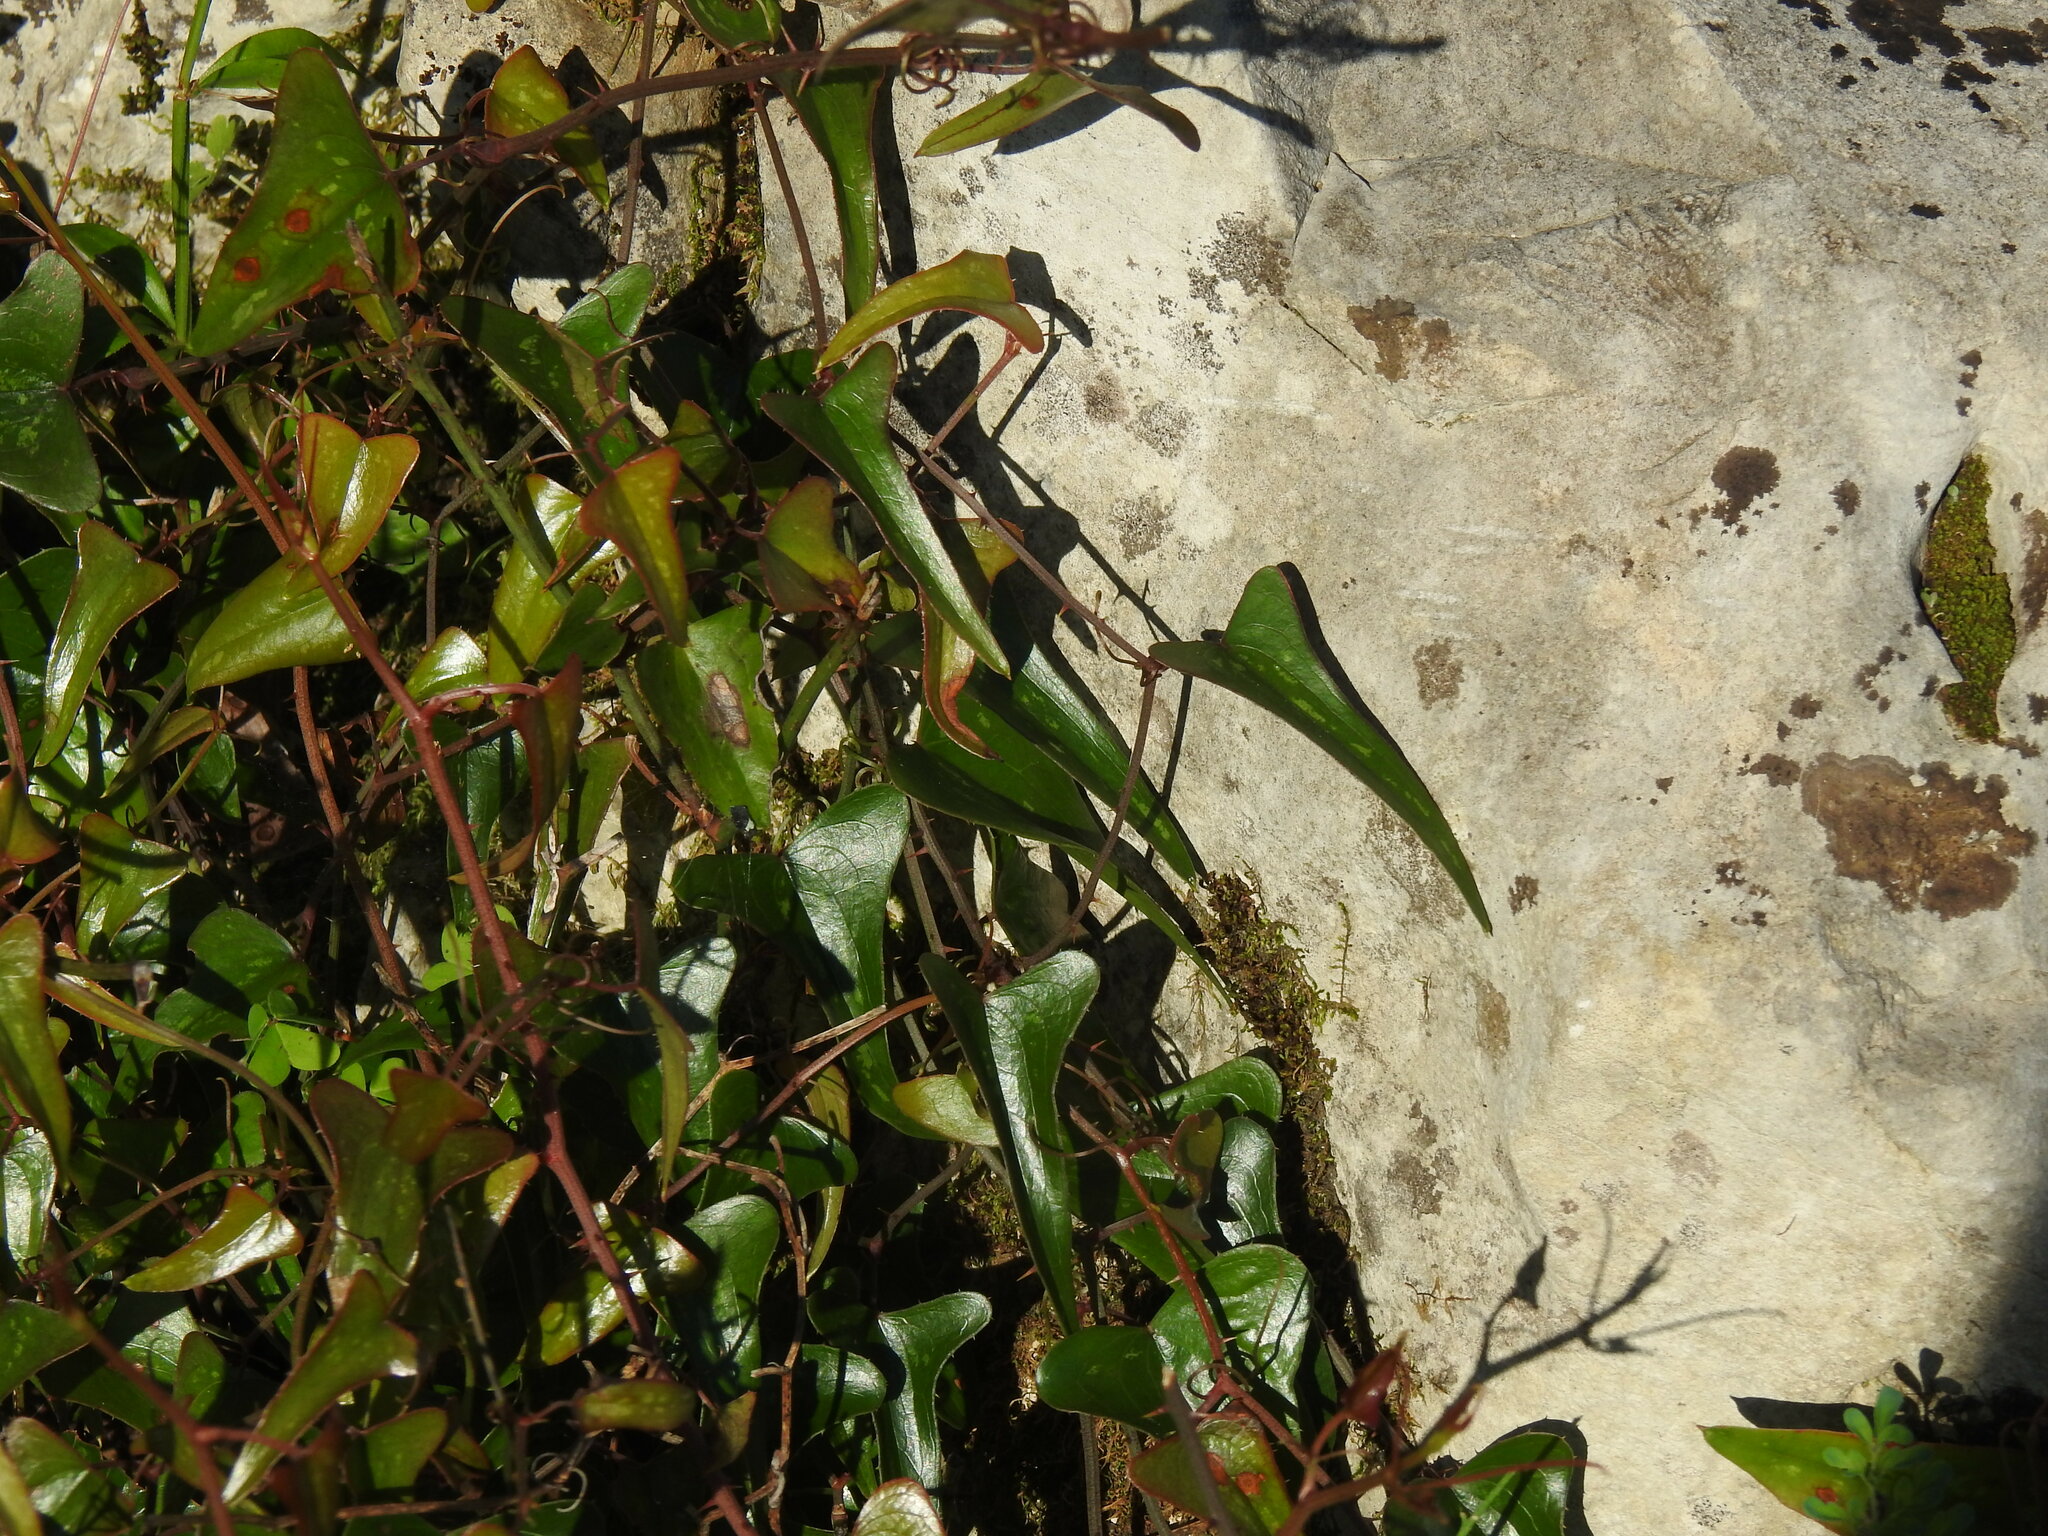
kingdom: Plantae
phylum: Tracheophyta
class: Liliopsida
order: Liliales
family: Smilacaceae
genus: Smilax
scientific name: Smilax aspera
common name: Common smilax
